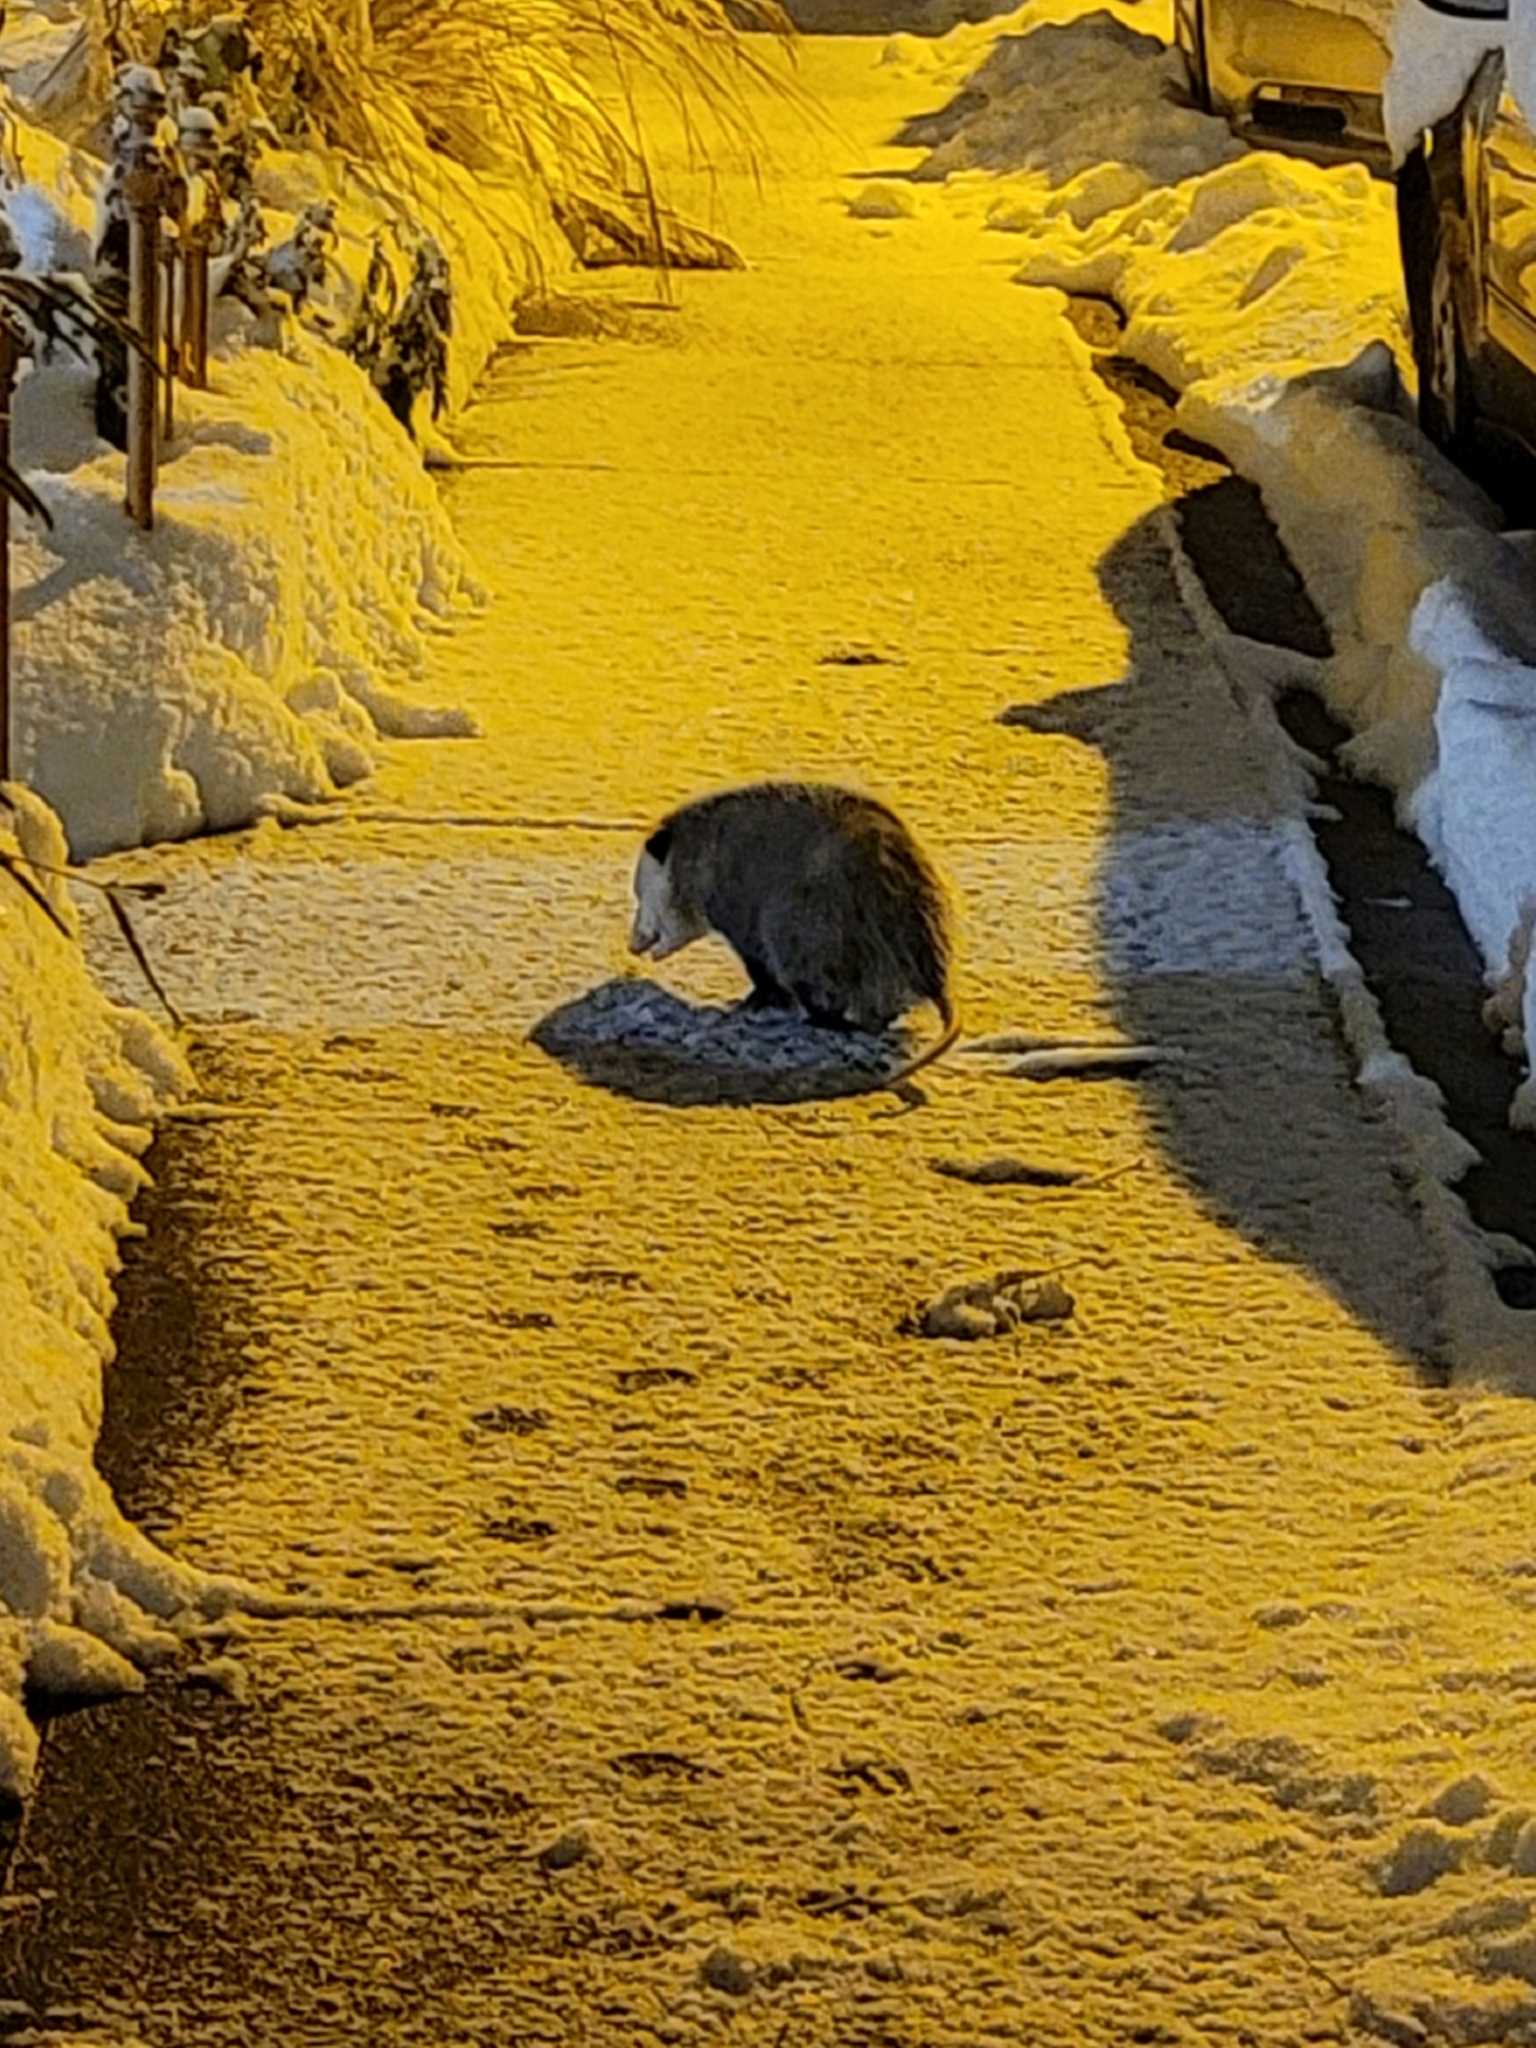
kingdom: Animalia
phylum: Chordata
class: Mammalia
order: Didelphimorphia
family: Didelphidae
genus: Didelphis
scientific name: Didelphis virginiana
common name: Virginia opossum
